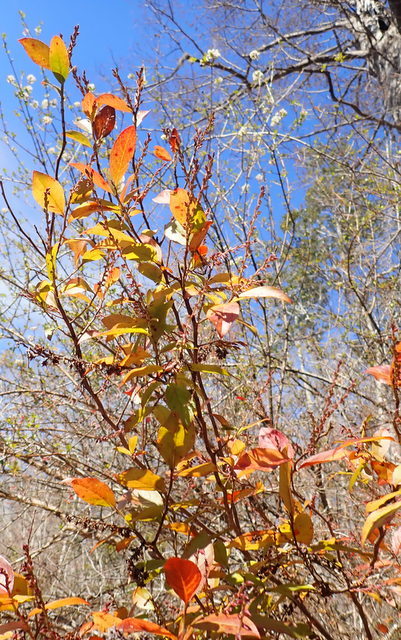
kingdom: Plantae
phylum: Tracheophyta
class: Magnoliopsida
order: Ericales
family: Ericaceae
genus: Eubotrys
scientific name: Eubotrys racemosa
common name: Fetterbush
